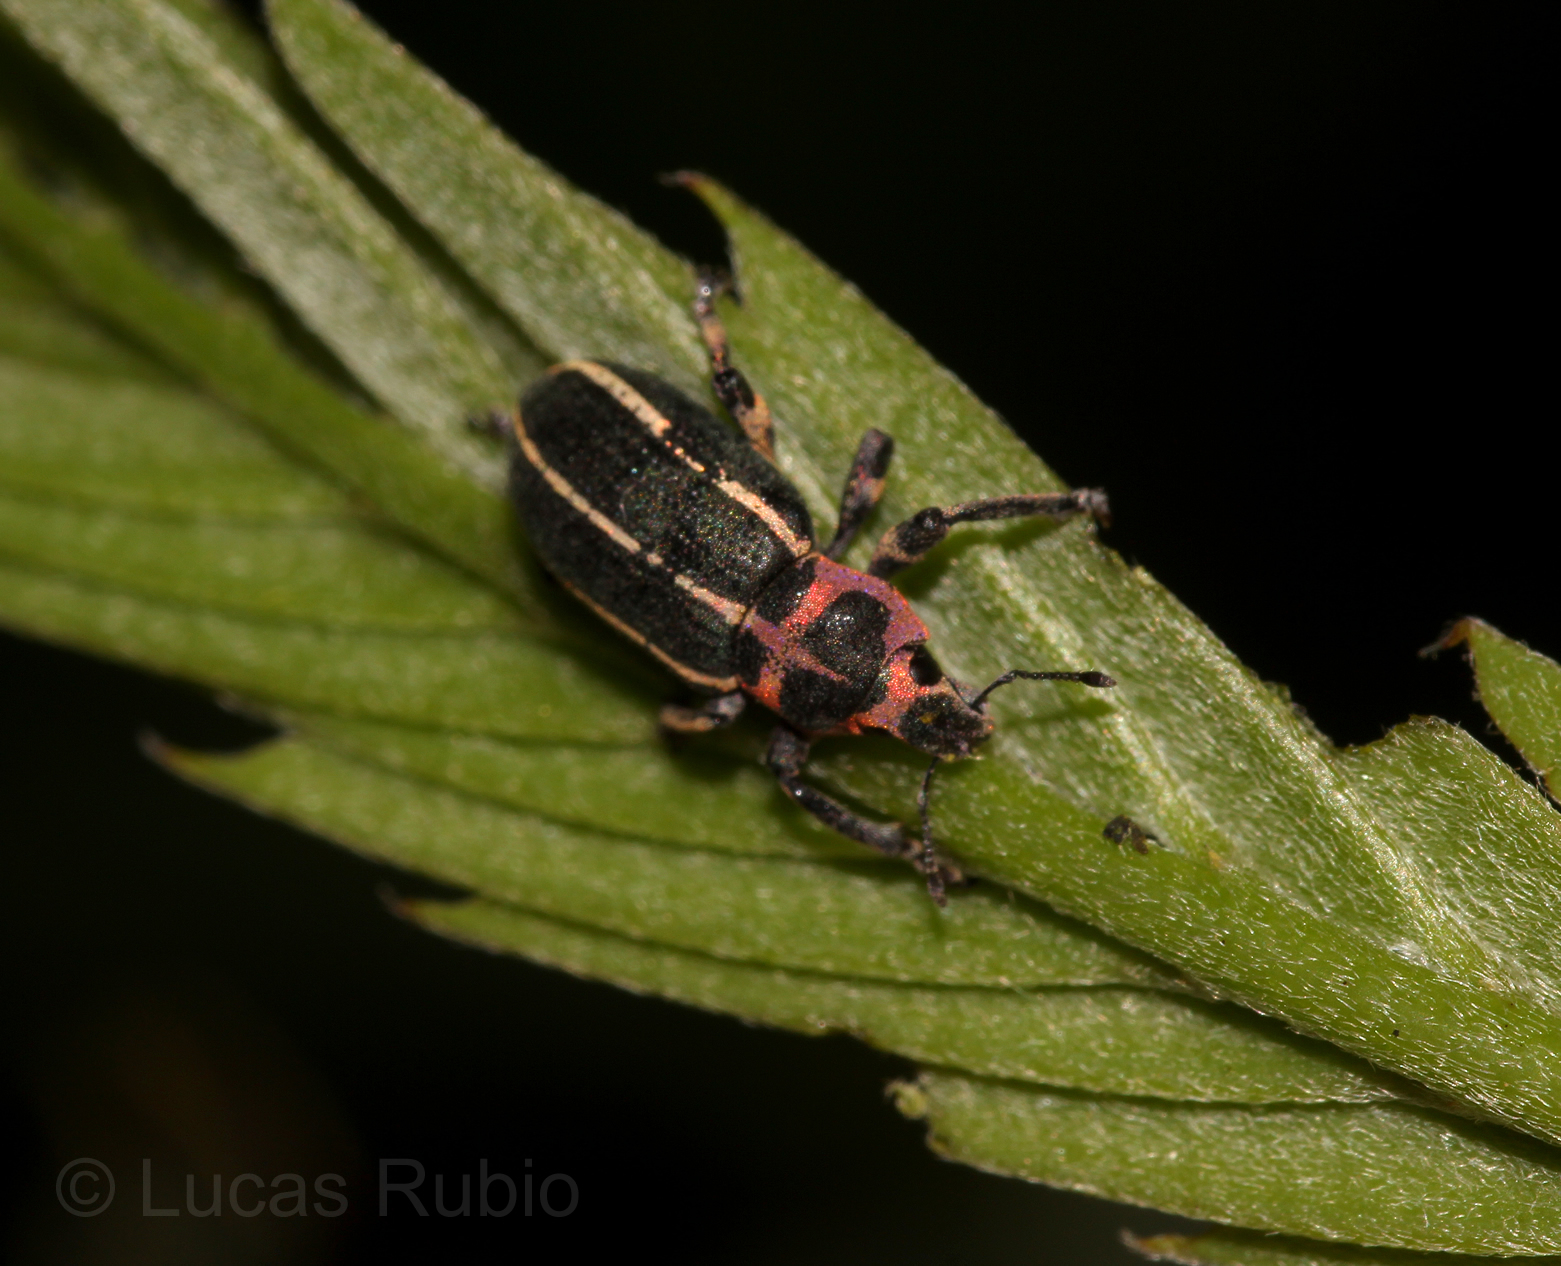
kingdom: Animalia
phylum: Arthropoda
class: Insecta
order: Coleoptera
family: Curculionidae
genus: Eudiagogus
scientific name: Eudiagogus episcopalis
